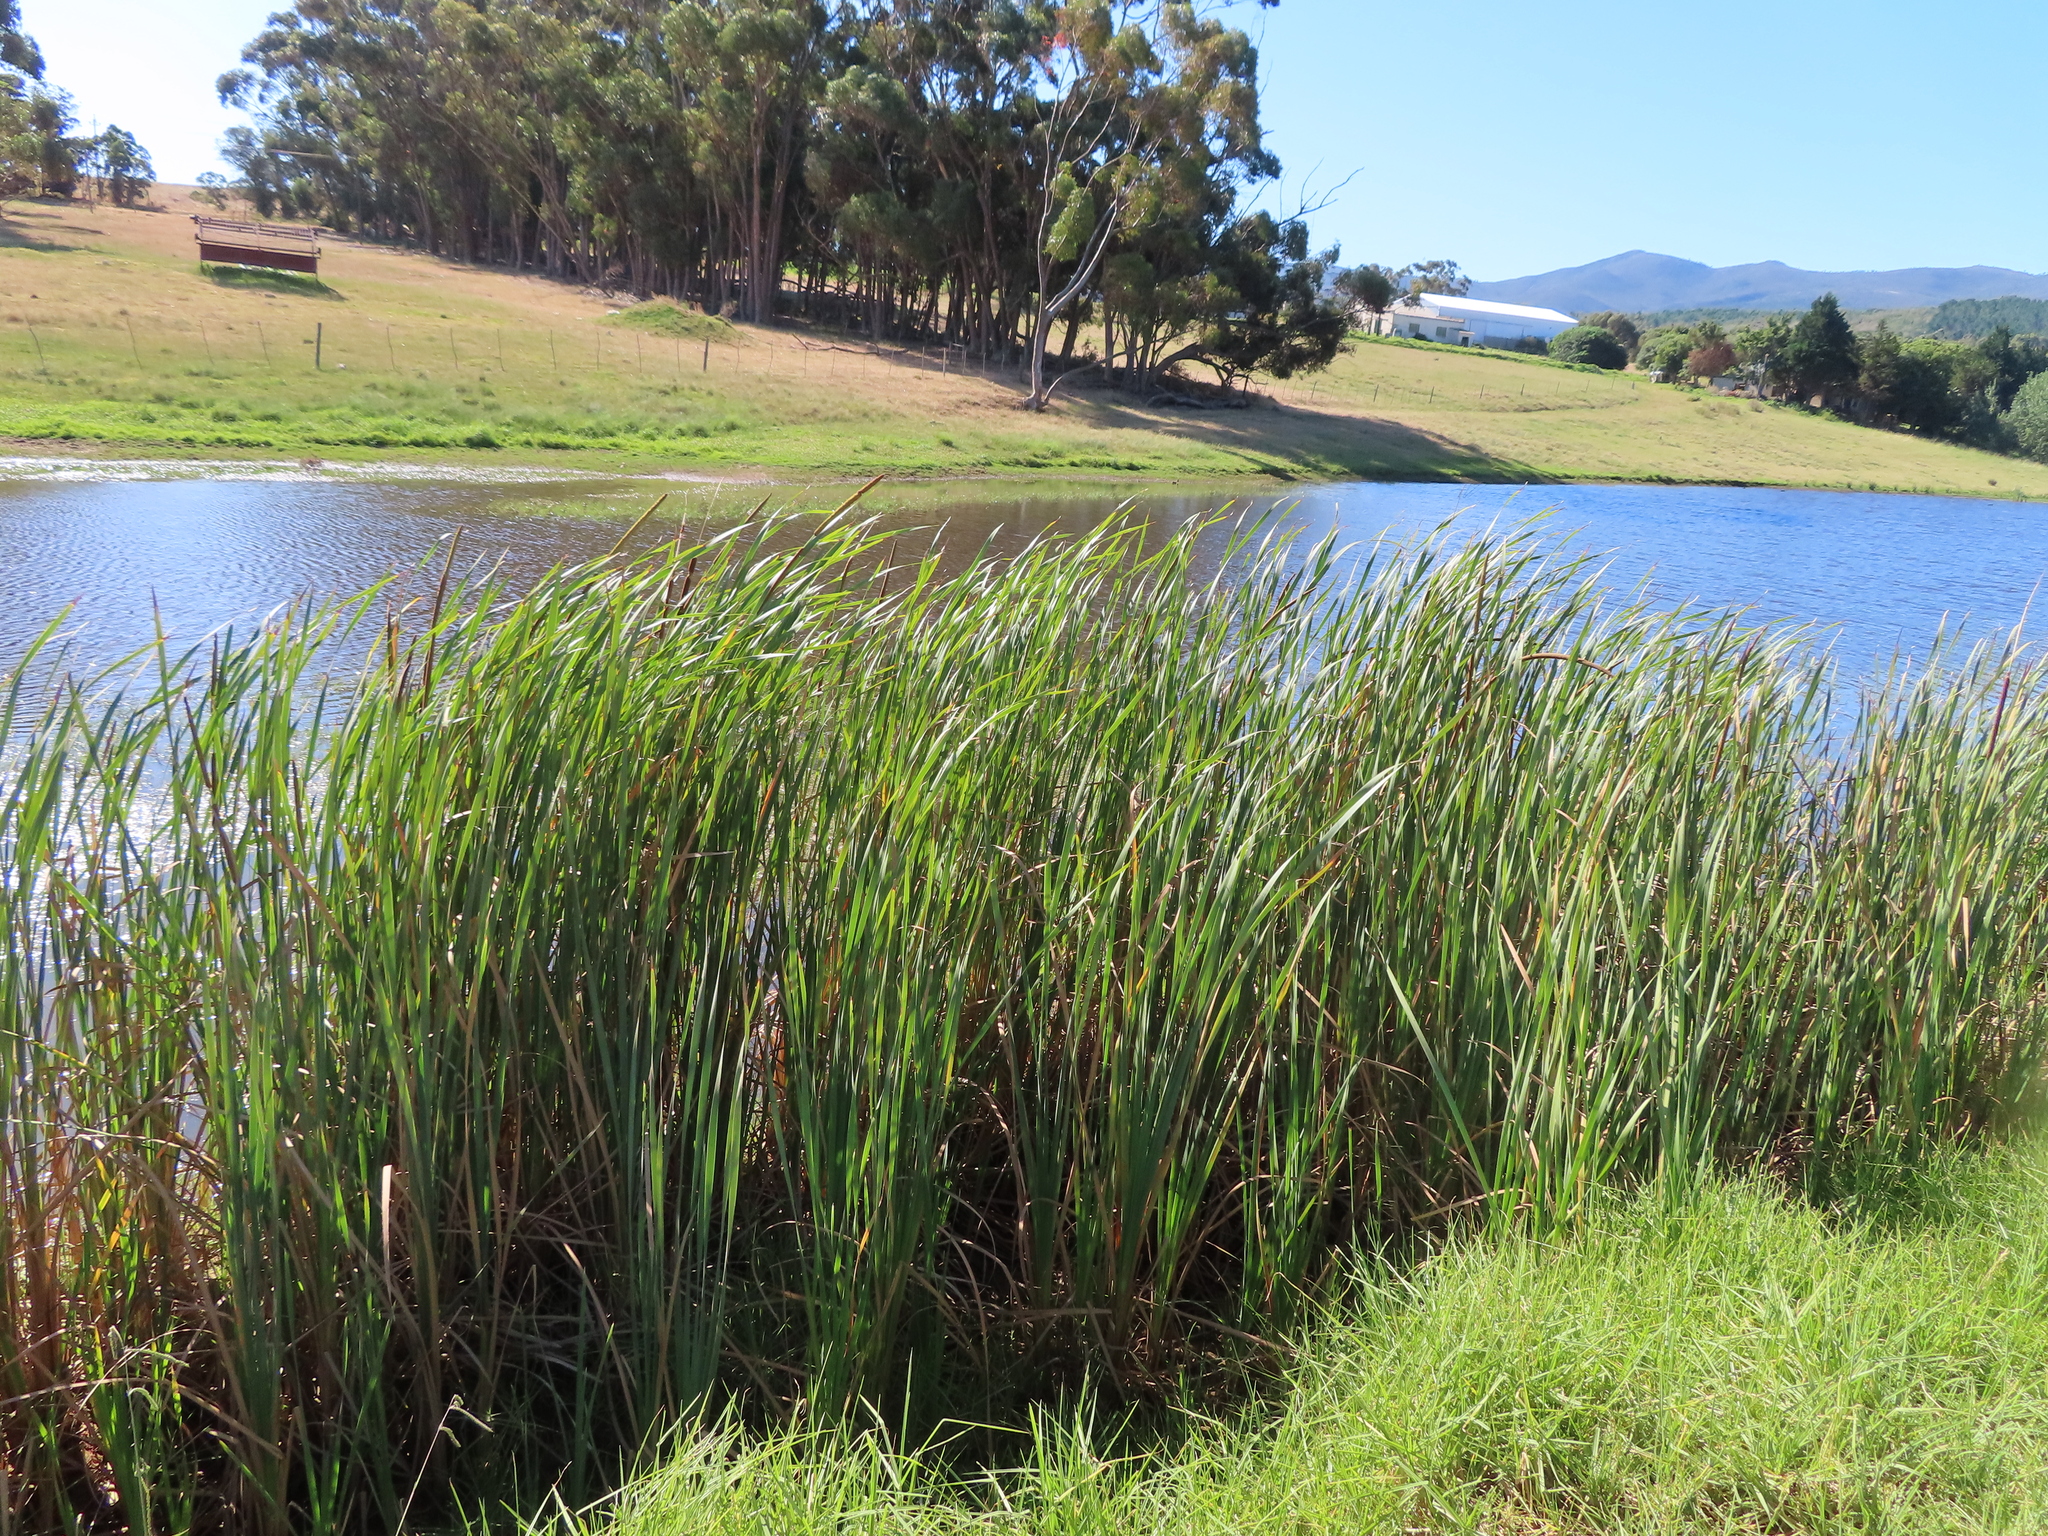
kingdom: Plantae
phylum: Tracheophyta
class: Liliopsida
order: Poales
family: Typhaceae
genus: Typha
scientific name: Typha capensis
